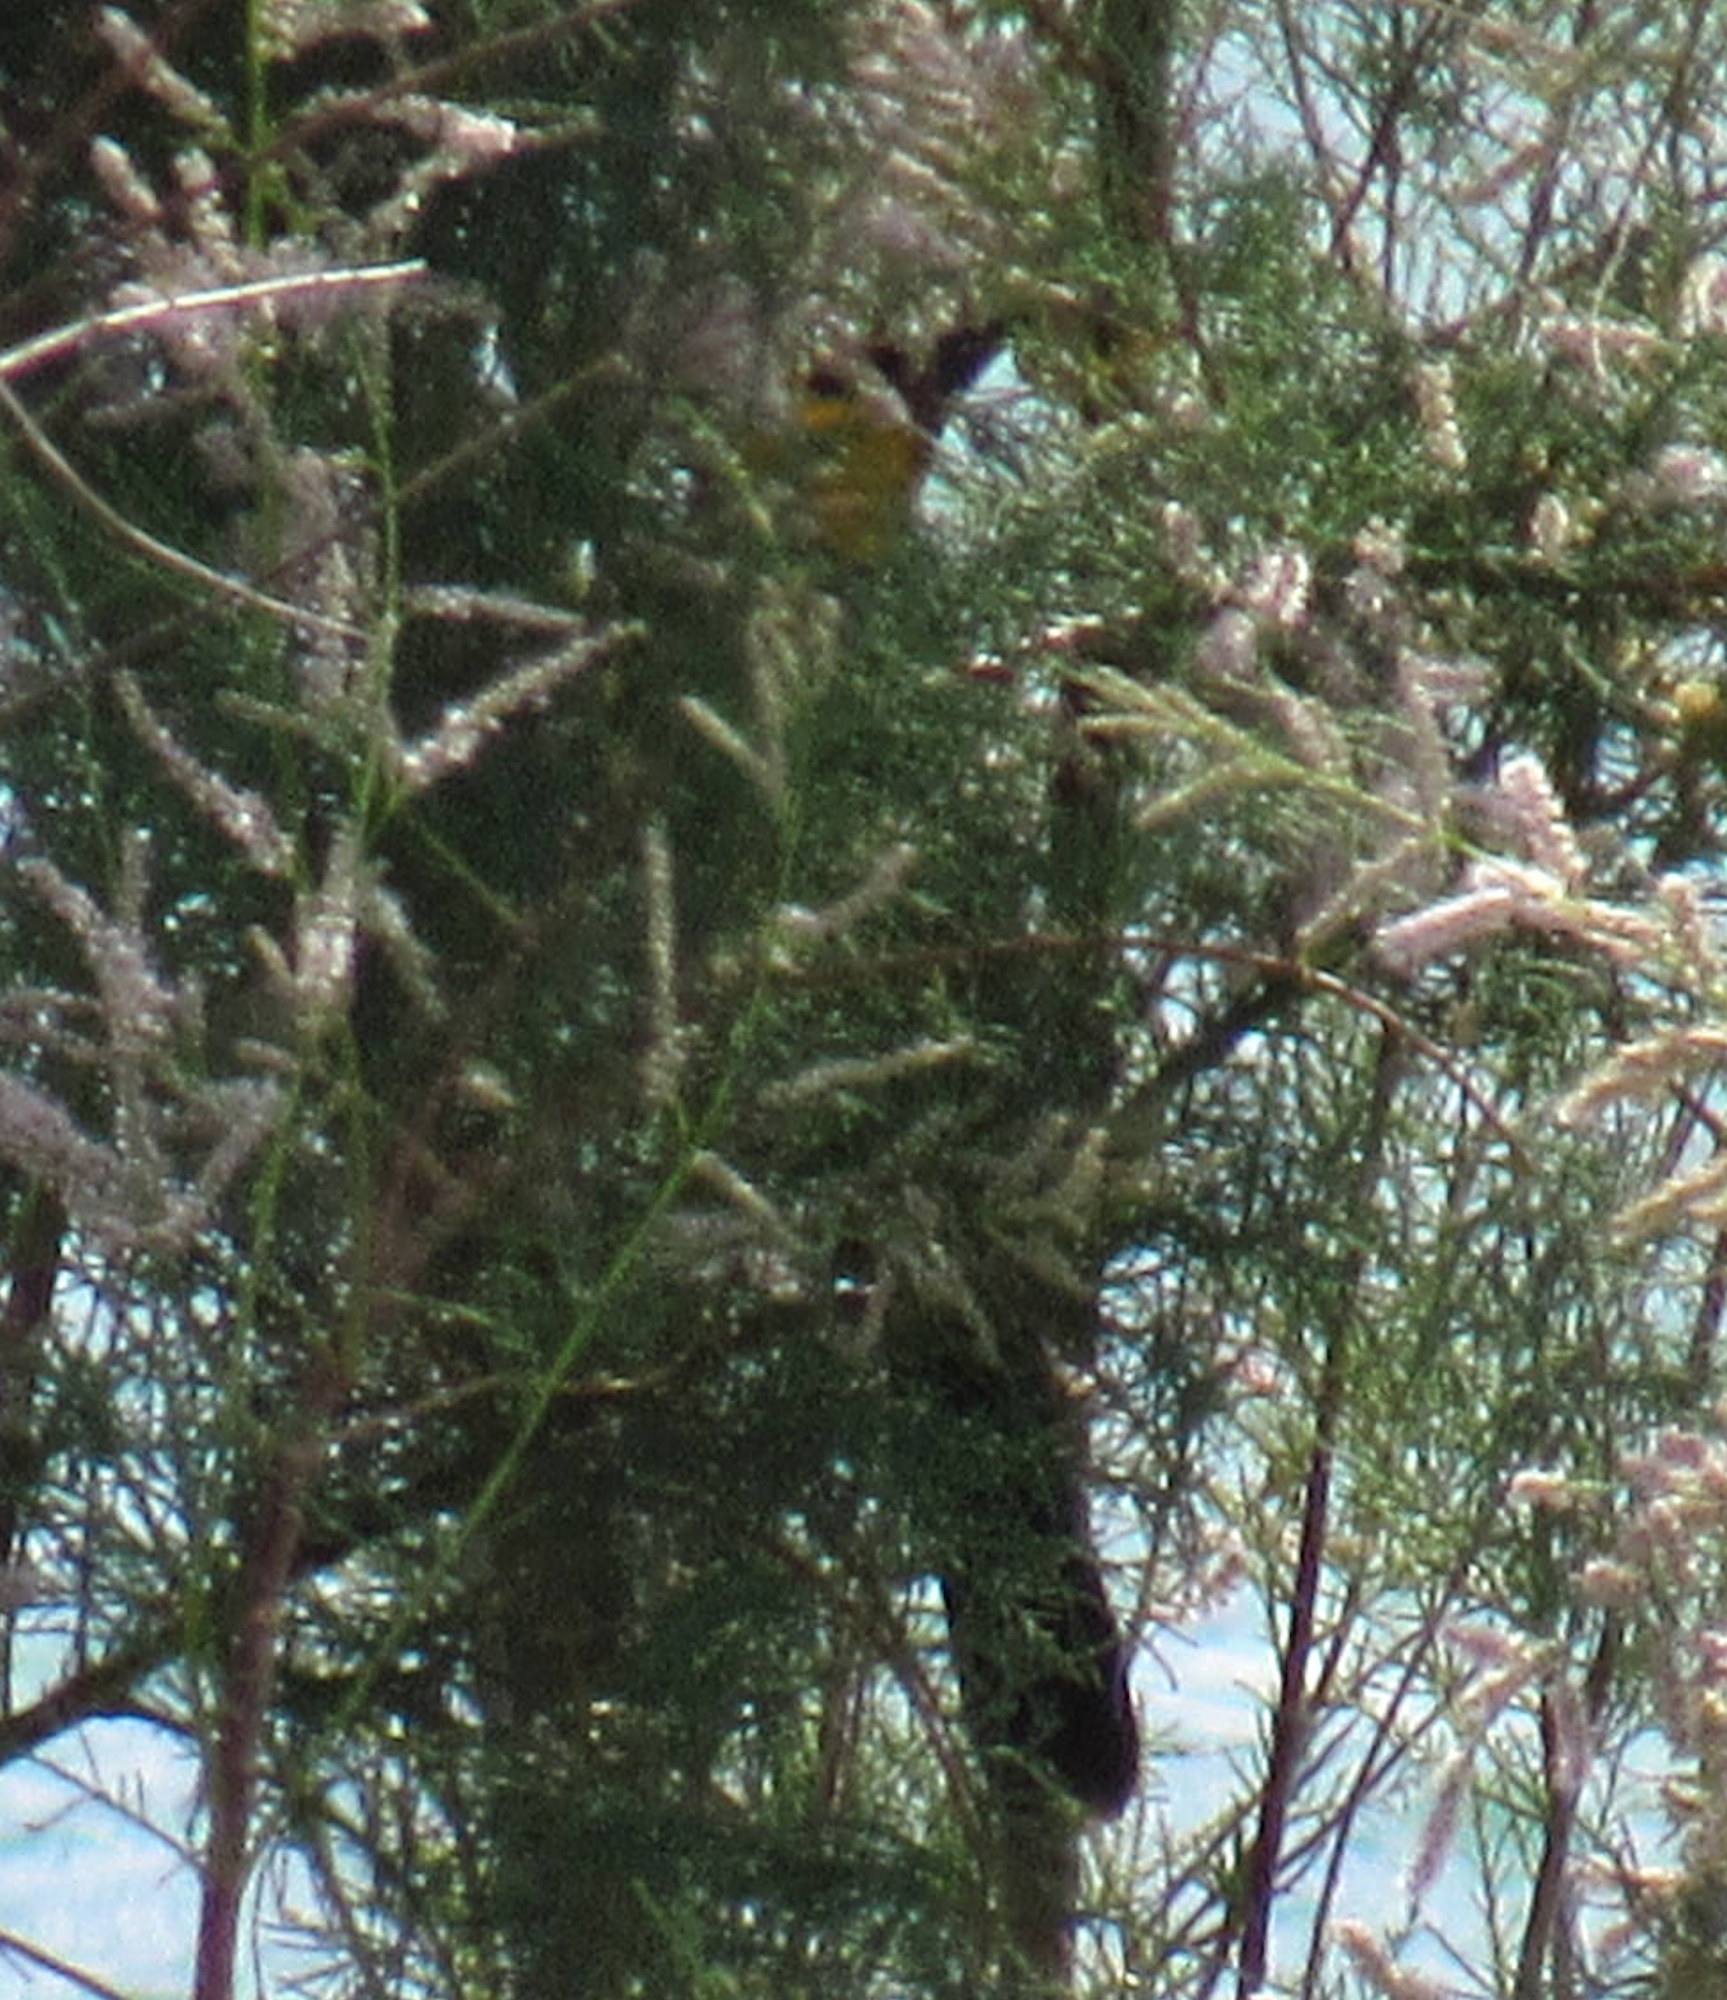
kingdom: Animalia
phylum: Chordata
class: Aves
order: Passeriformes
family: Icteridae
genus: Xanthocephalus
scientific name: Xanthocephalus xanthocephalus
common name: Yellow-headed blackbird
